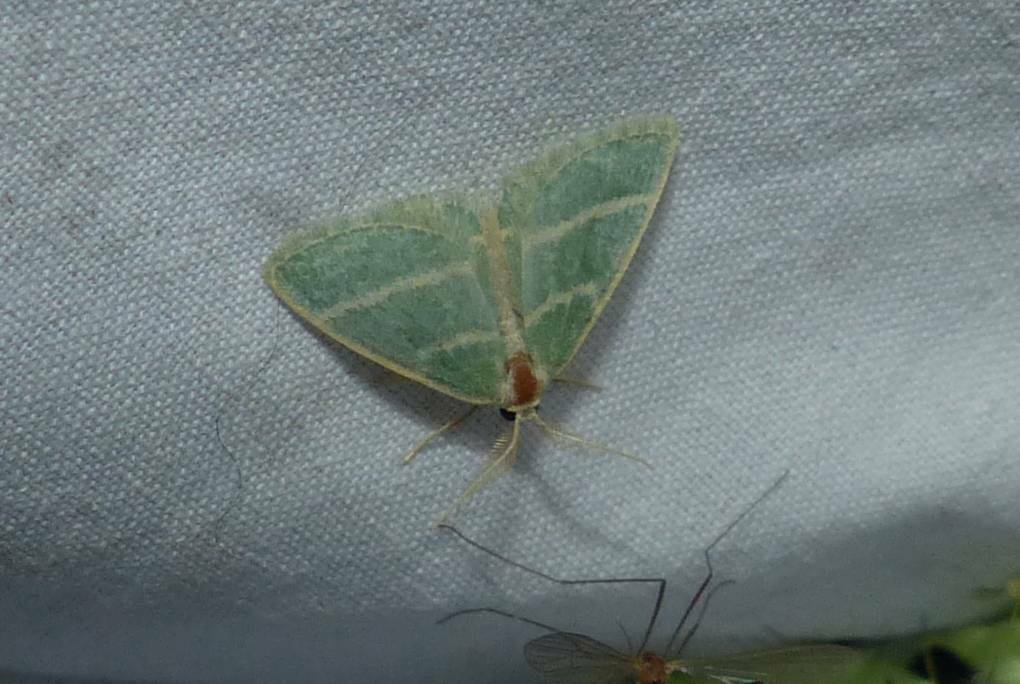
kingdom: Animalia
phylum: Arthropoda
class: Insecta
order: Lepidoptera
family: Geometridae
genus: Chlorochlamys
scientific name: Chlorochlamys chloroleucaria
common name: Blackberry looper
